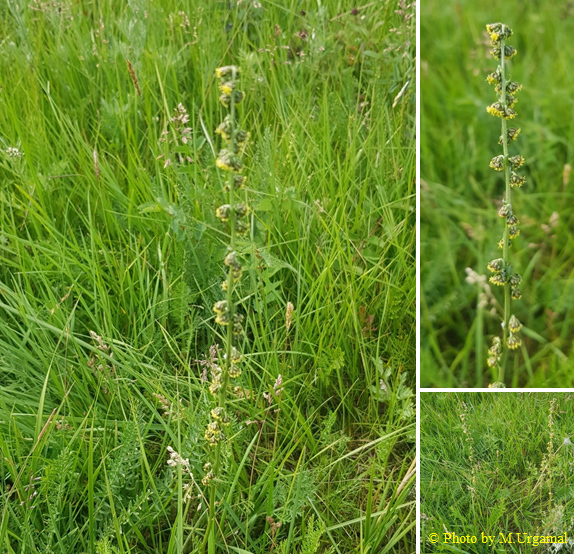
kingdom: Plantae
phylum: Tracheophyta
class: Magnoliopsida
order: Asterales
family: Asteraceae
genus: Artemisia
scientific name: Artemisia laciniata
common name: Siberian wormwood
